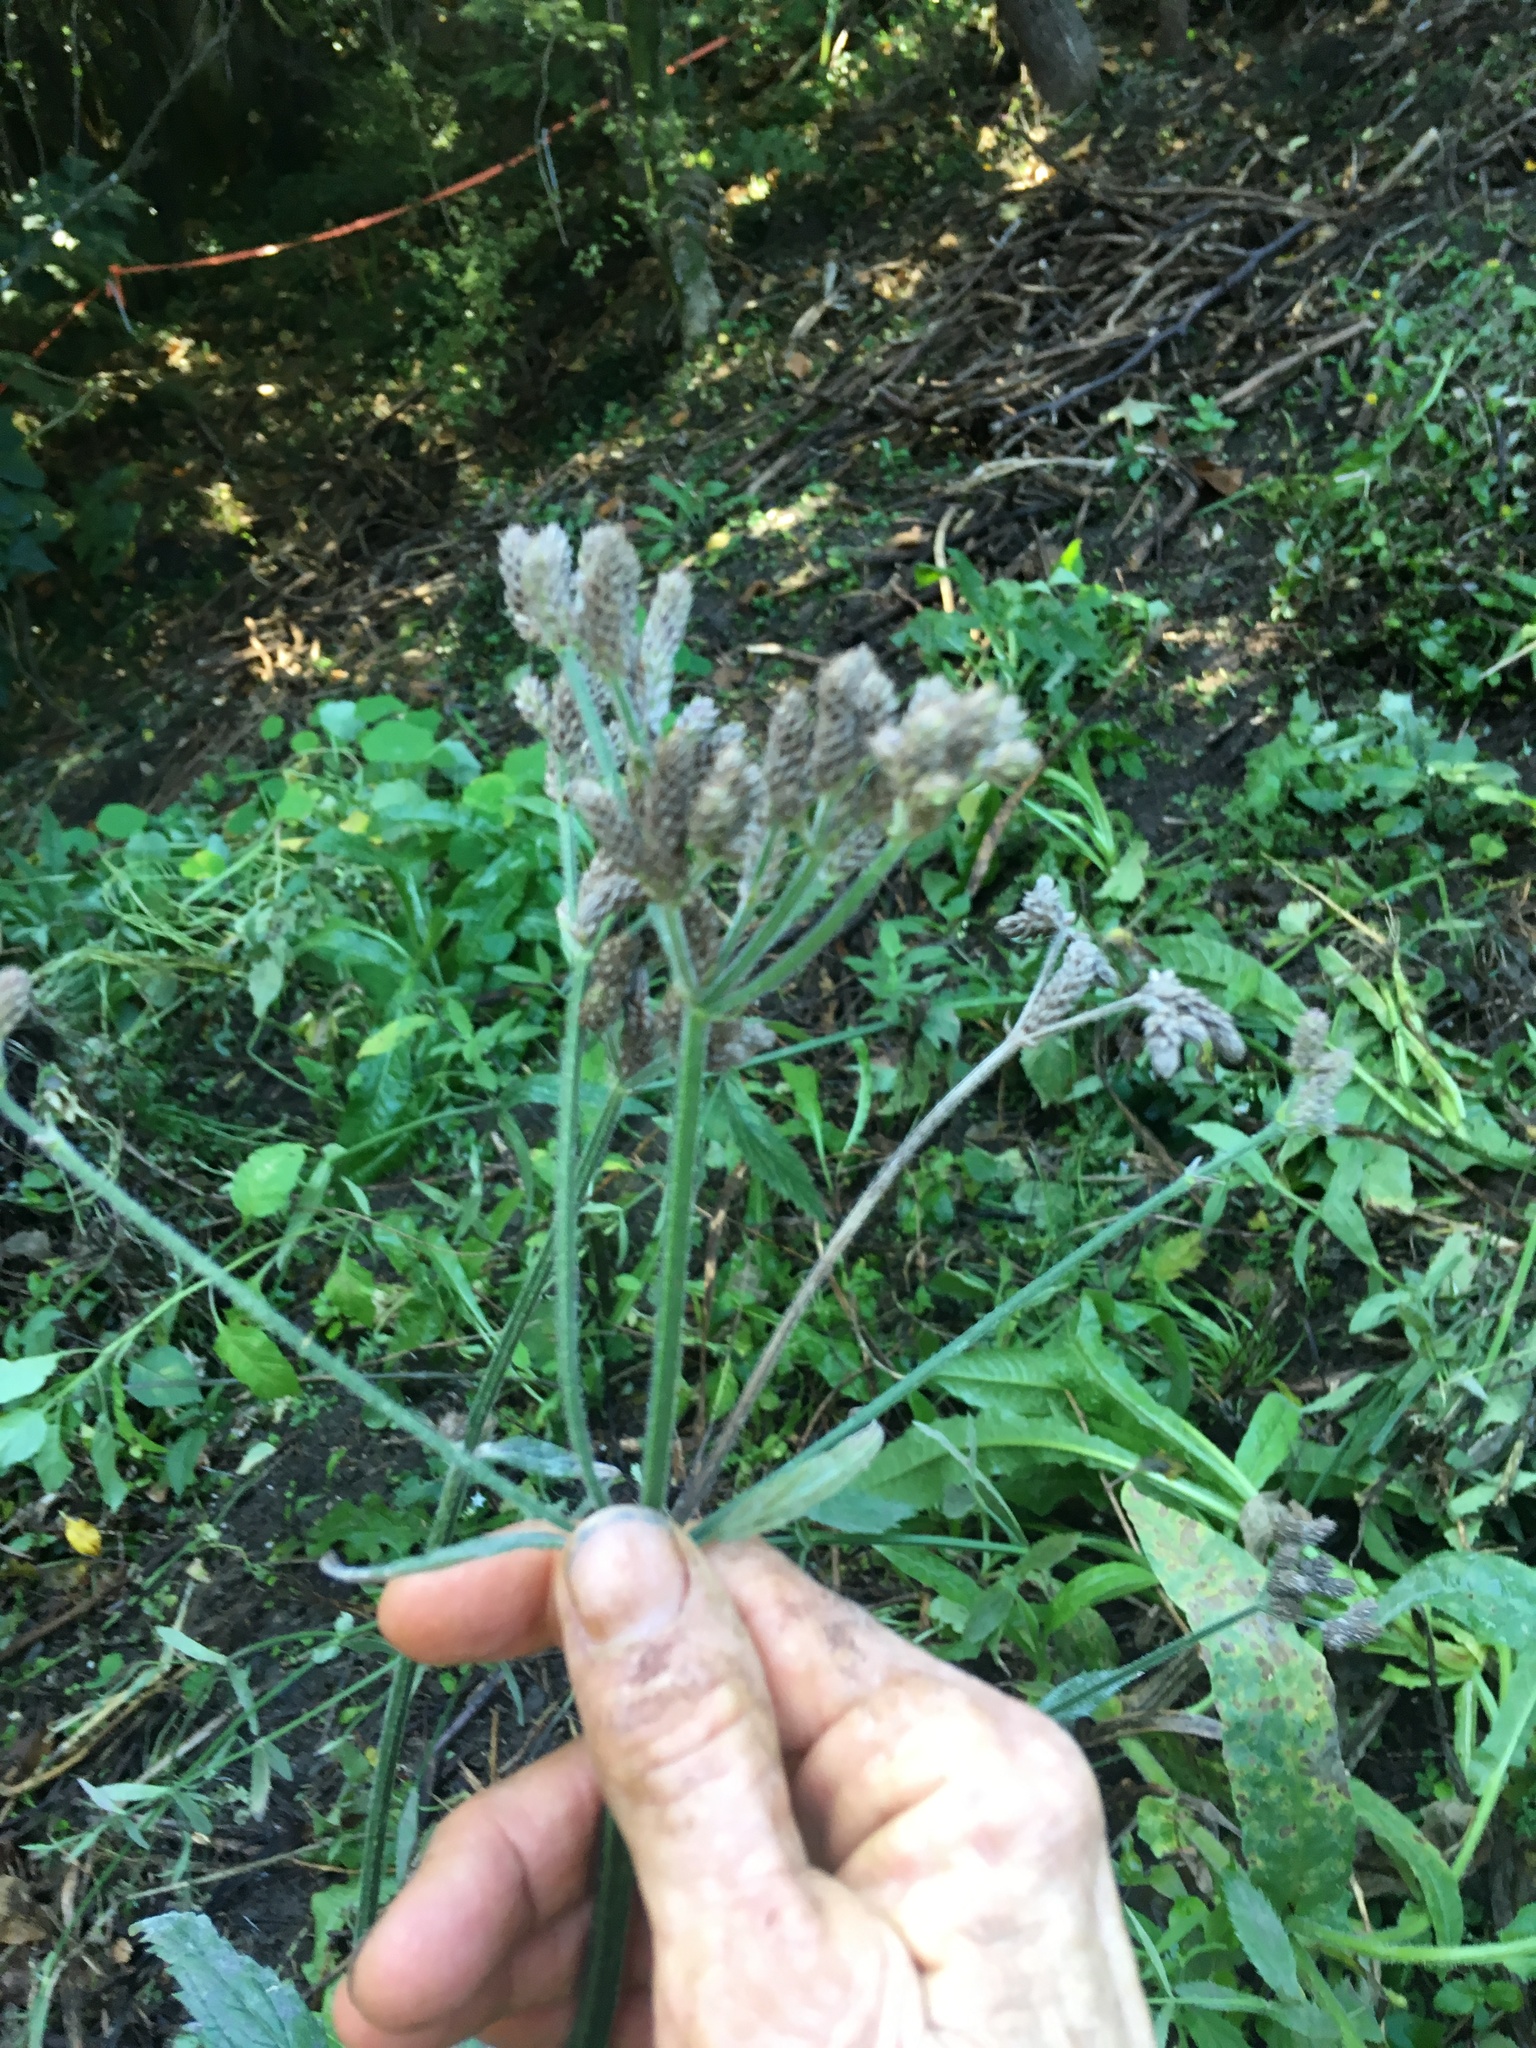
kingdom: Plantae
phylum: Tracheophyta
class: Magnoliopsida
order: Lamiales
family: Verbenaceae
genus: Verbena
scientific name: Verbena incompta
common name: Purpletop vervain
